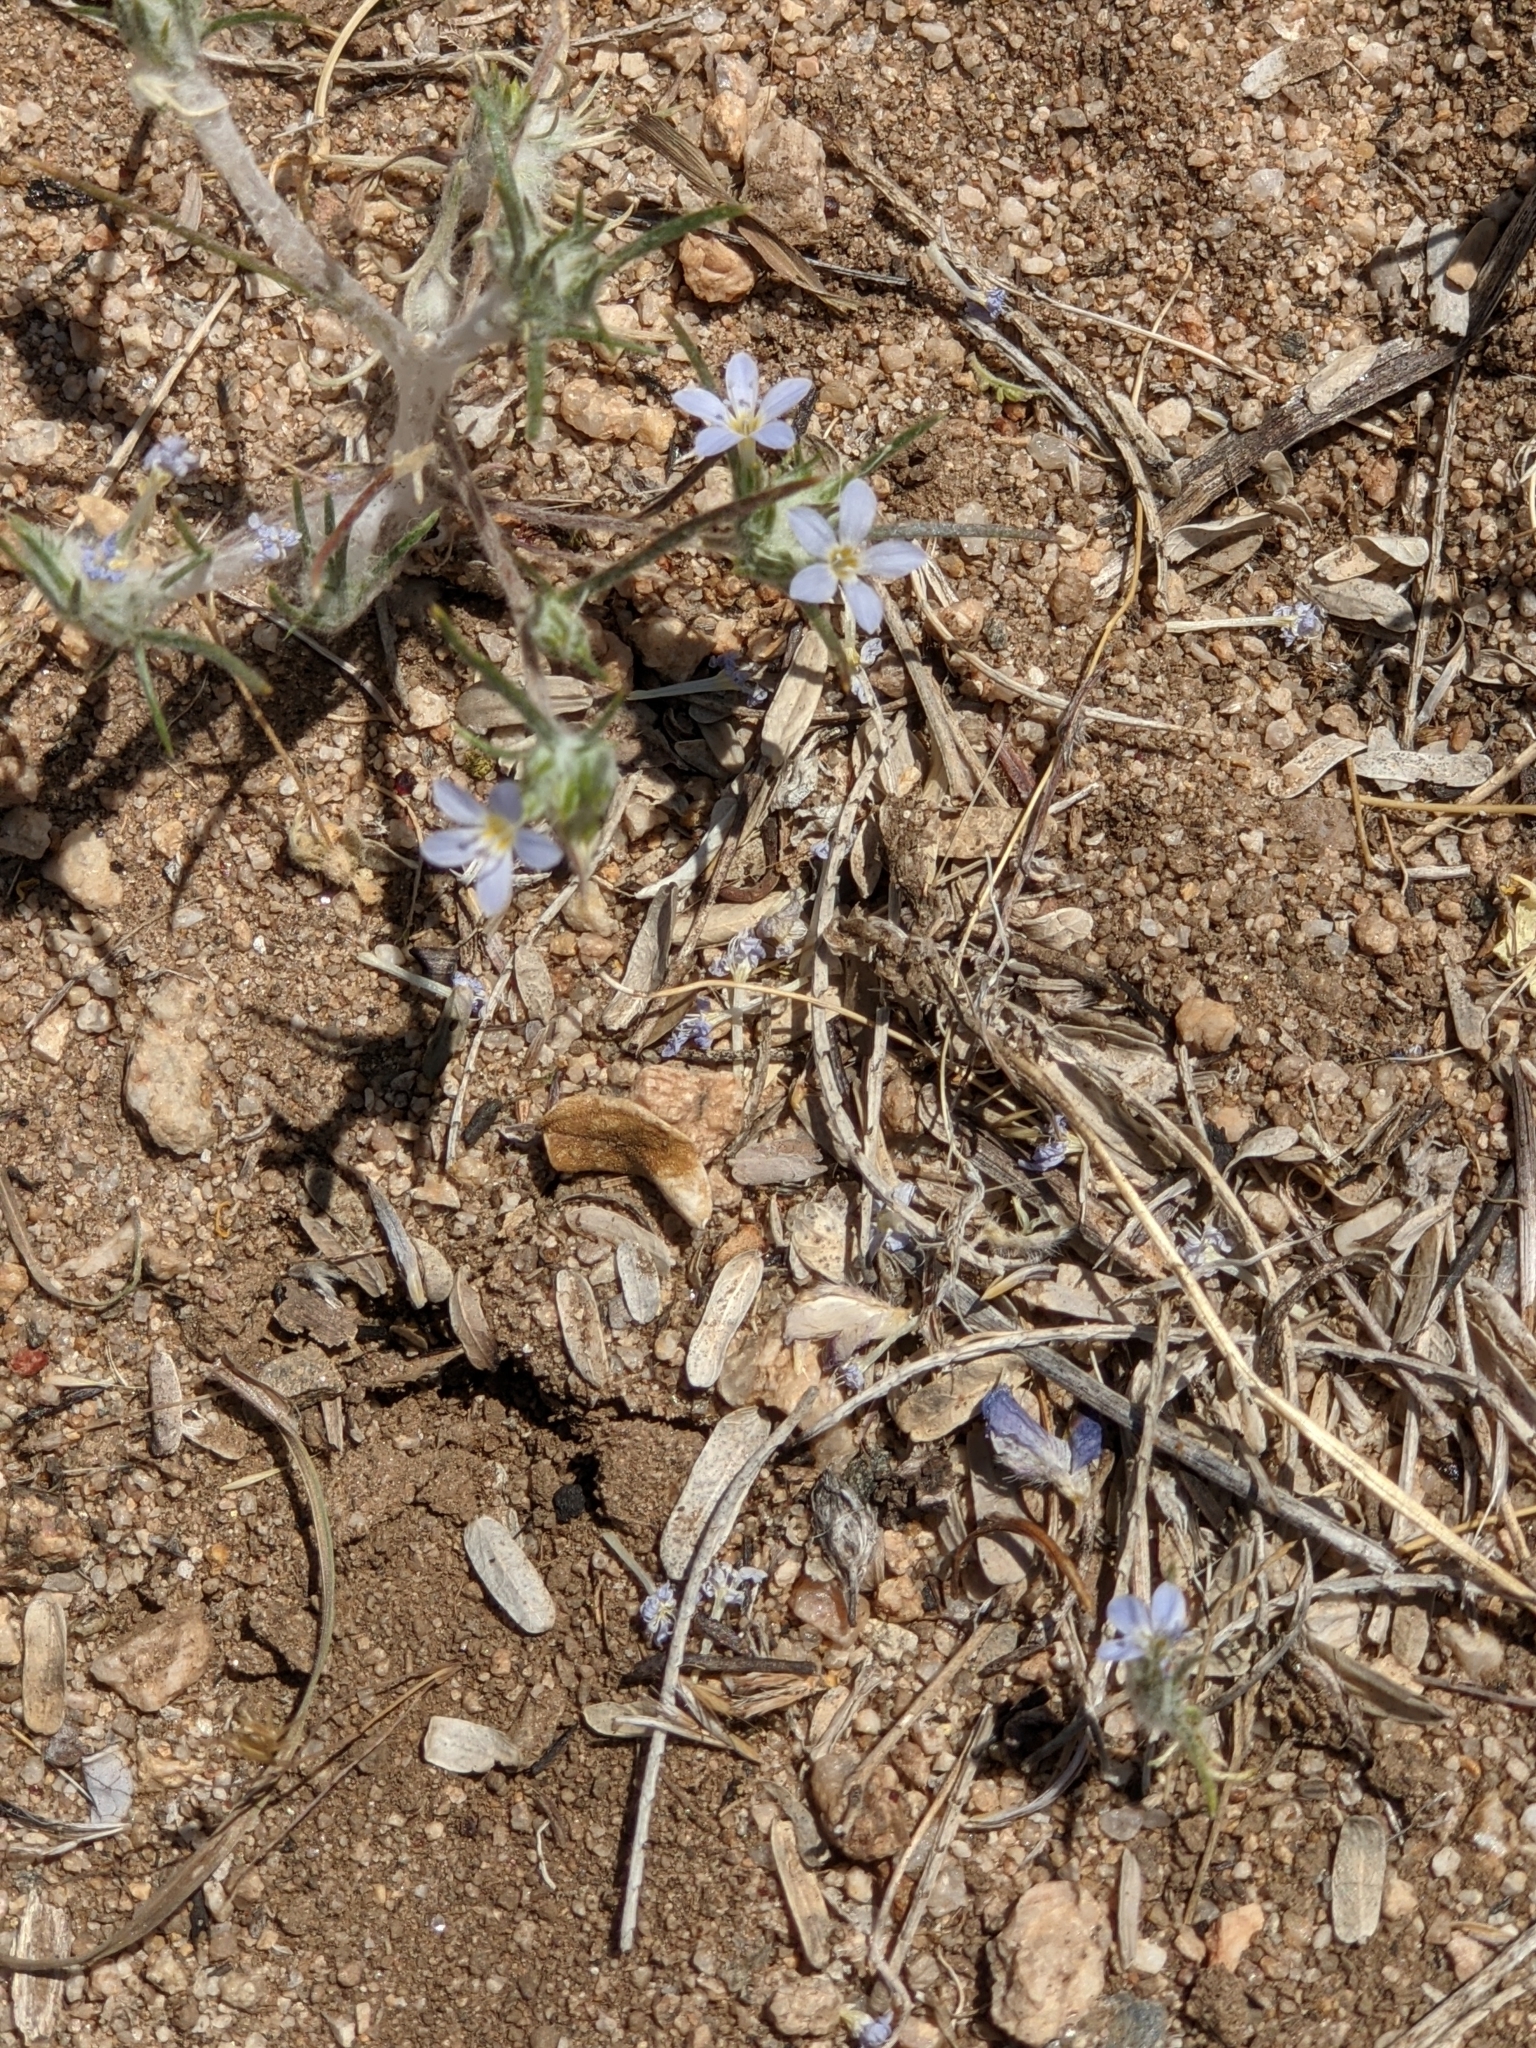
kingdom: Plantae
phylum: Tracheophyta
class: Magnoliopsida
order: Ericales
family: Polemoniaceae
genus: Eriastrum
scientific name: Eriastrum diffusum
